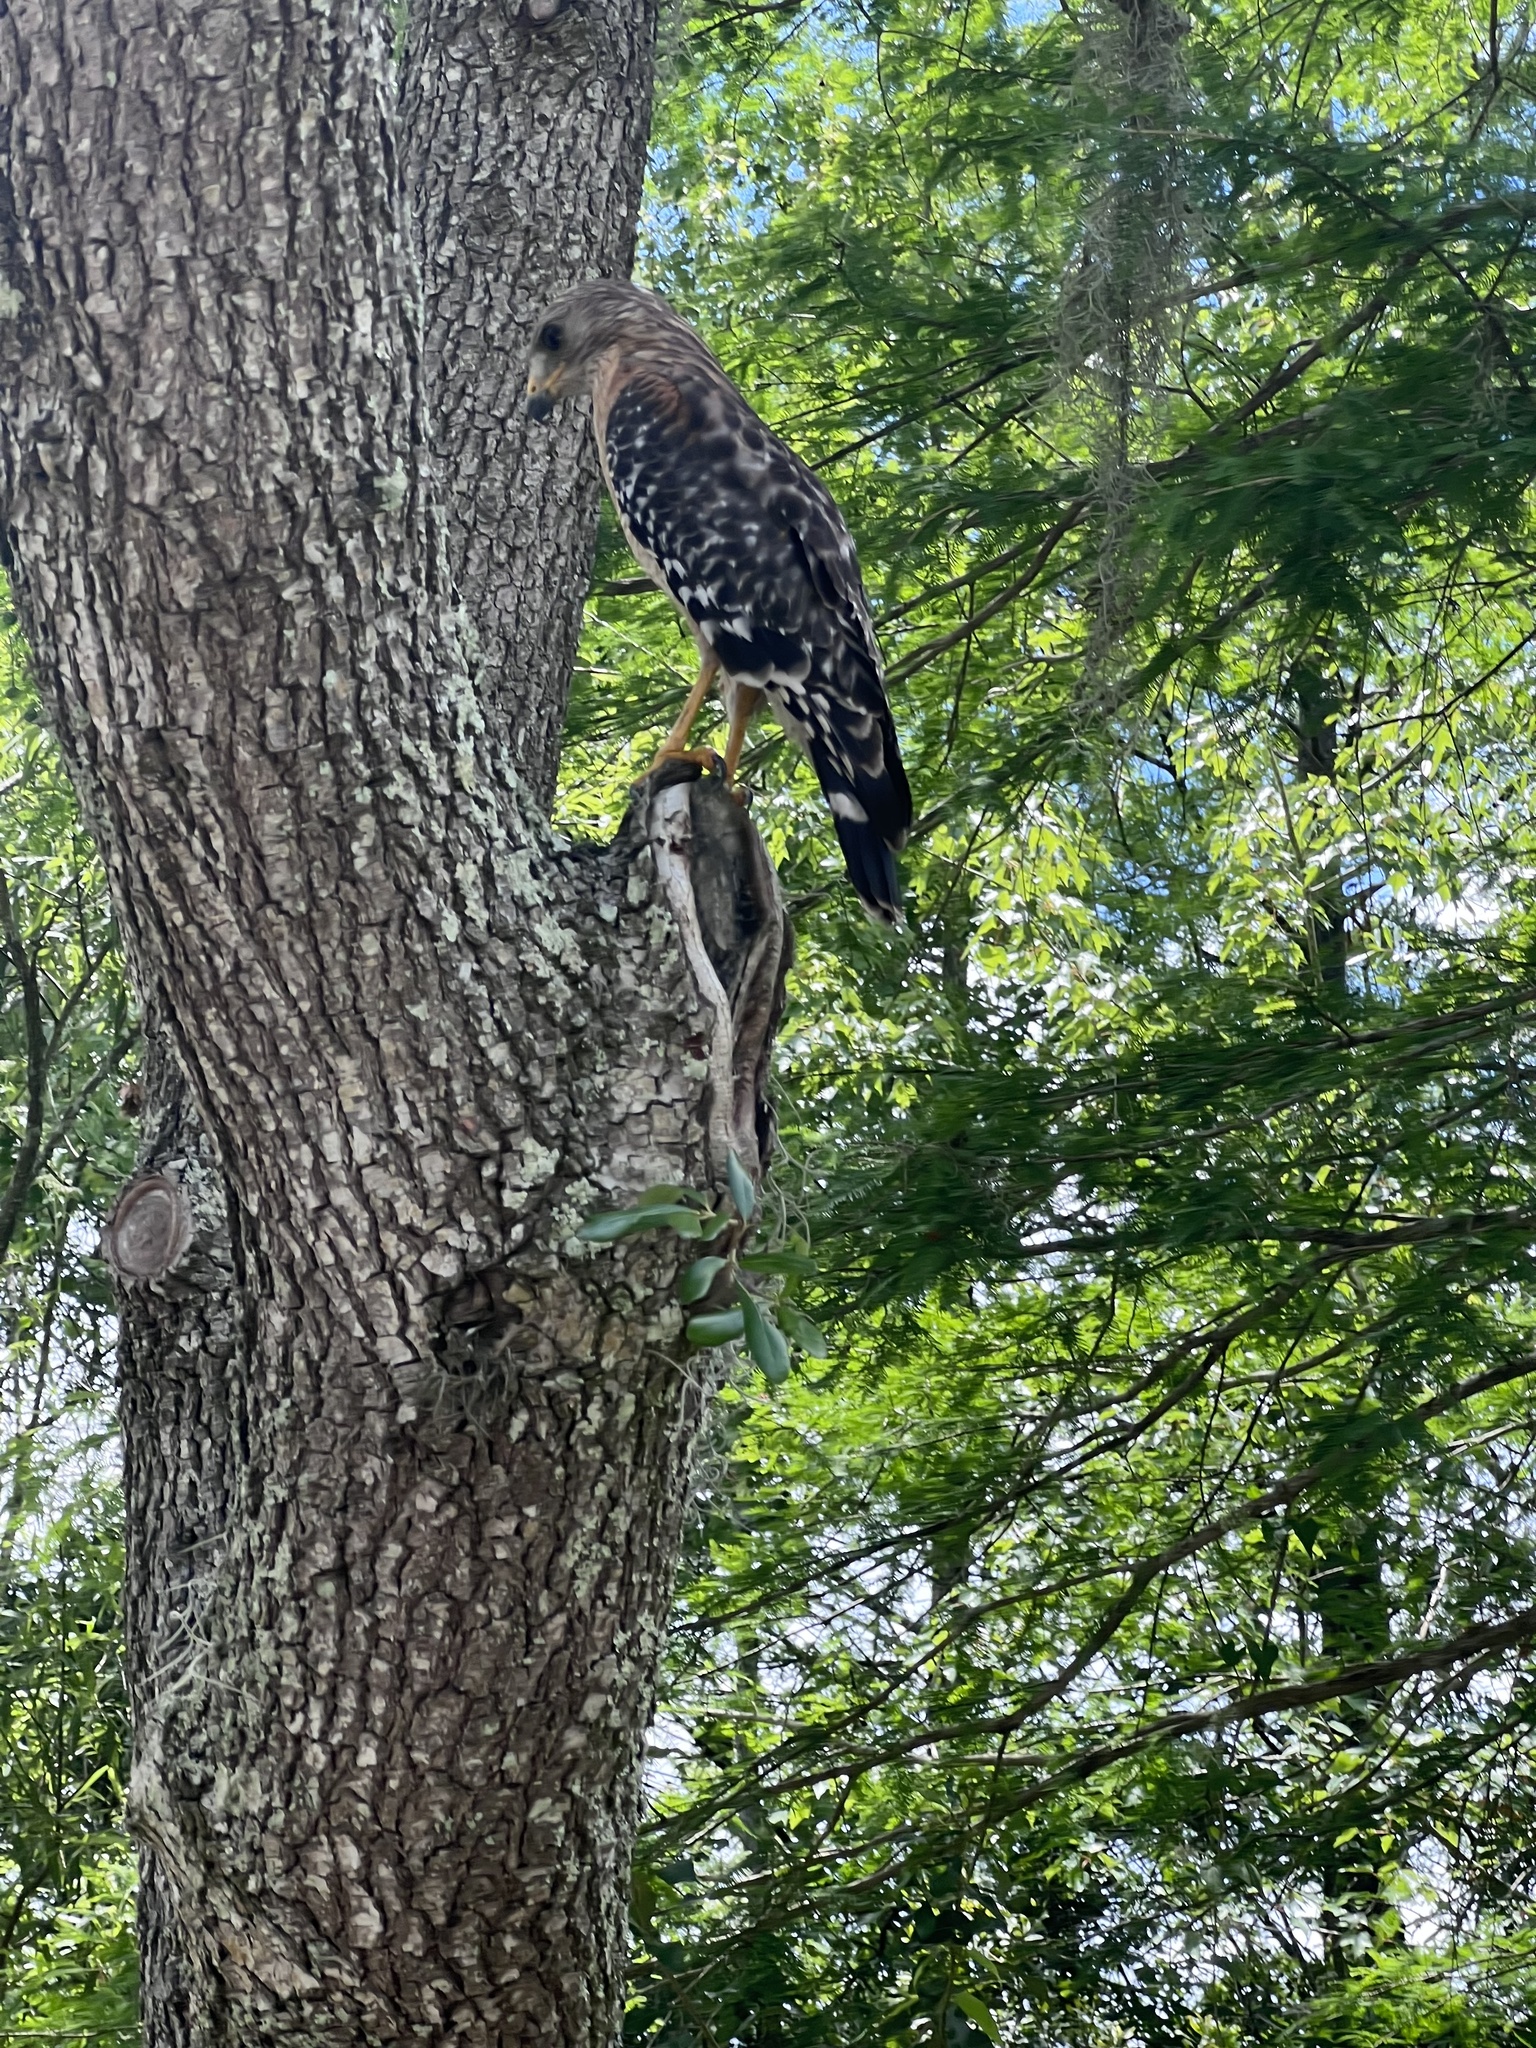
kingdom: Animalia
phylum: Chordata
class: Aves
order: Accipitriformes
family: Accipitridae
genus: Buteo
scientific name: Buteo lineatus
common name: Red-shouldered hawk
